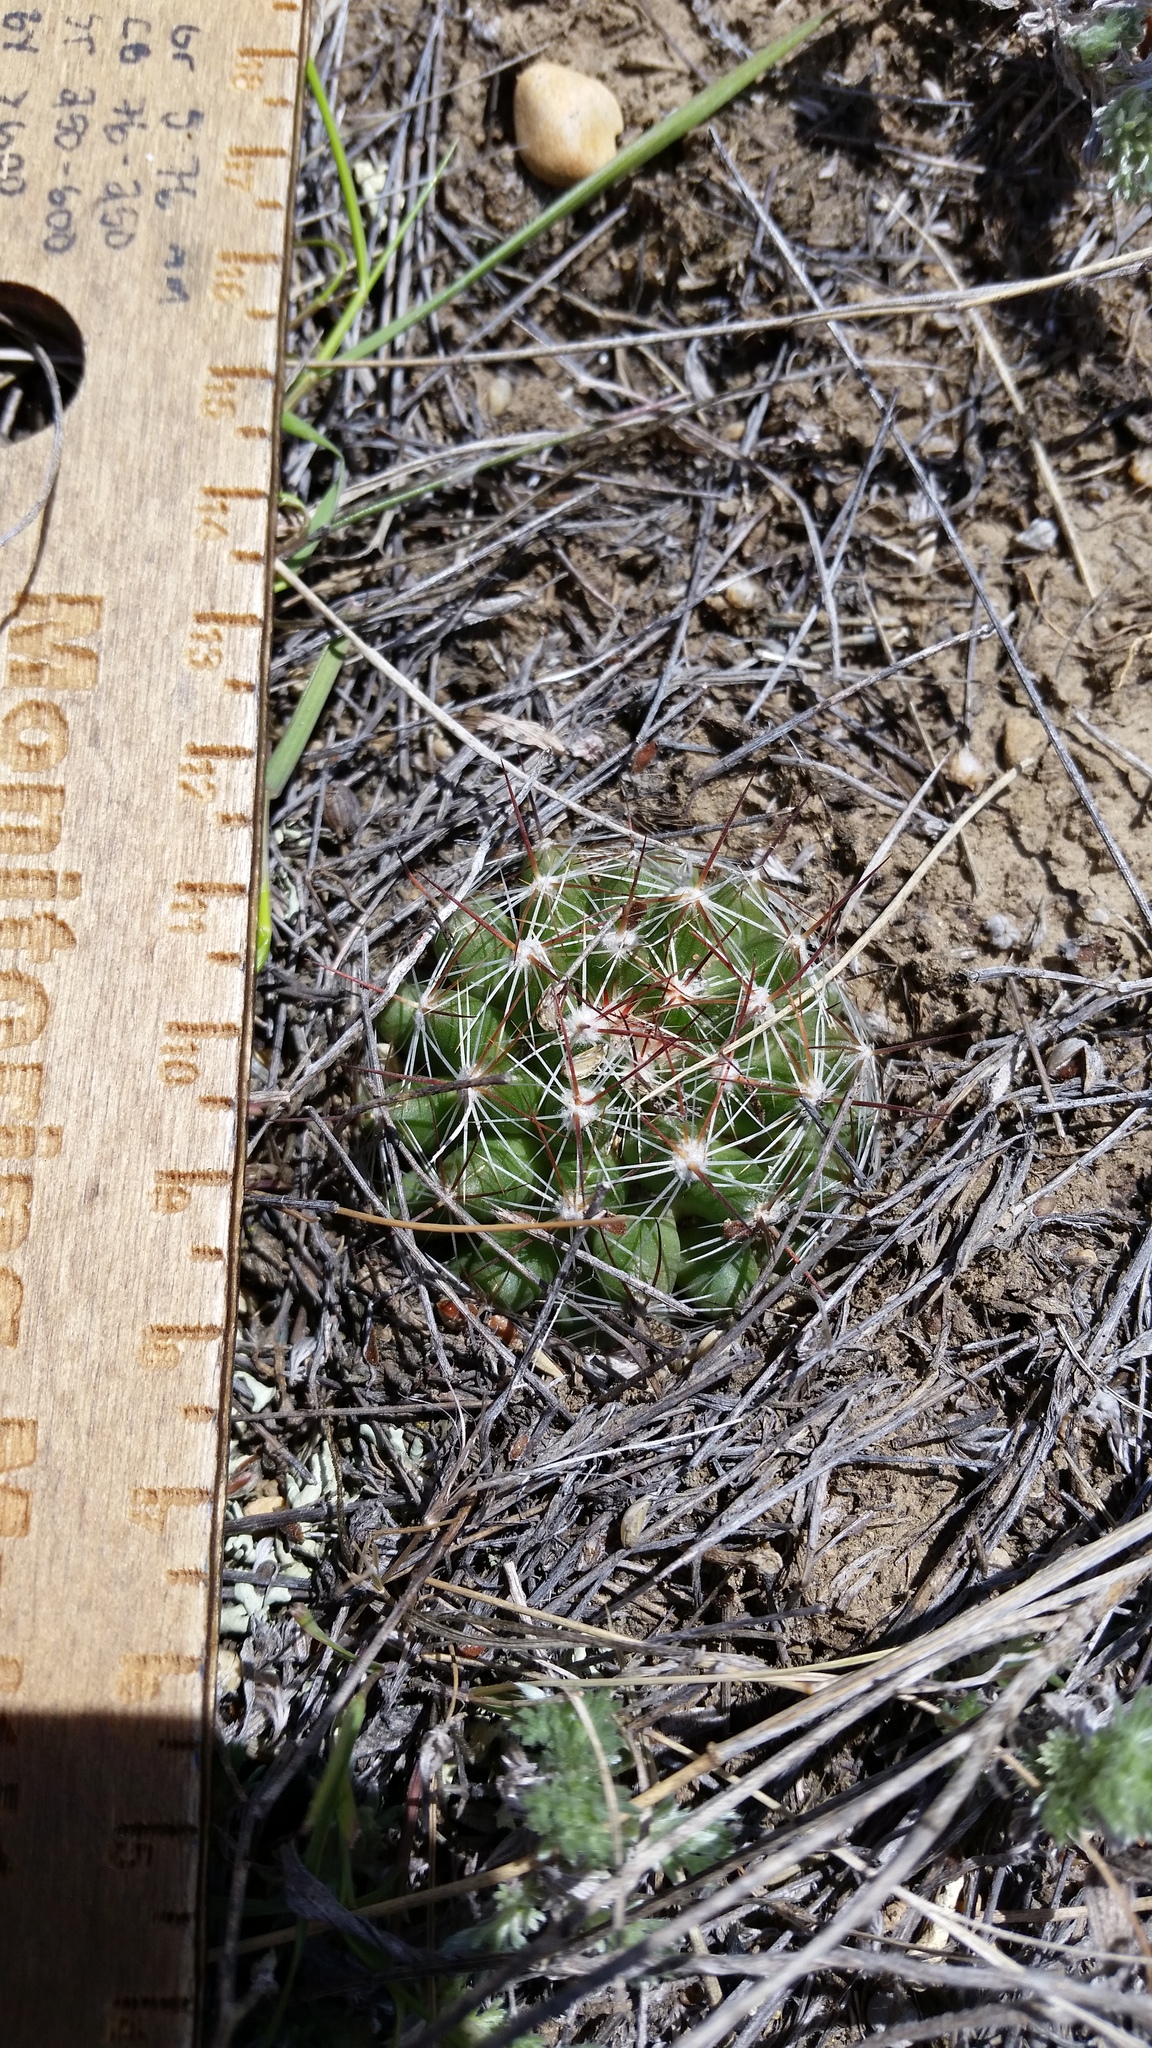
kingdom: Plantae
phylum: Tracheophyta
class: Magnoliopsida
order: Caryophyllales
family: Cactaceae
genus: Pelecyphora
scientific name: Pelecyphora vivipara
